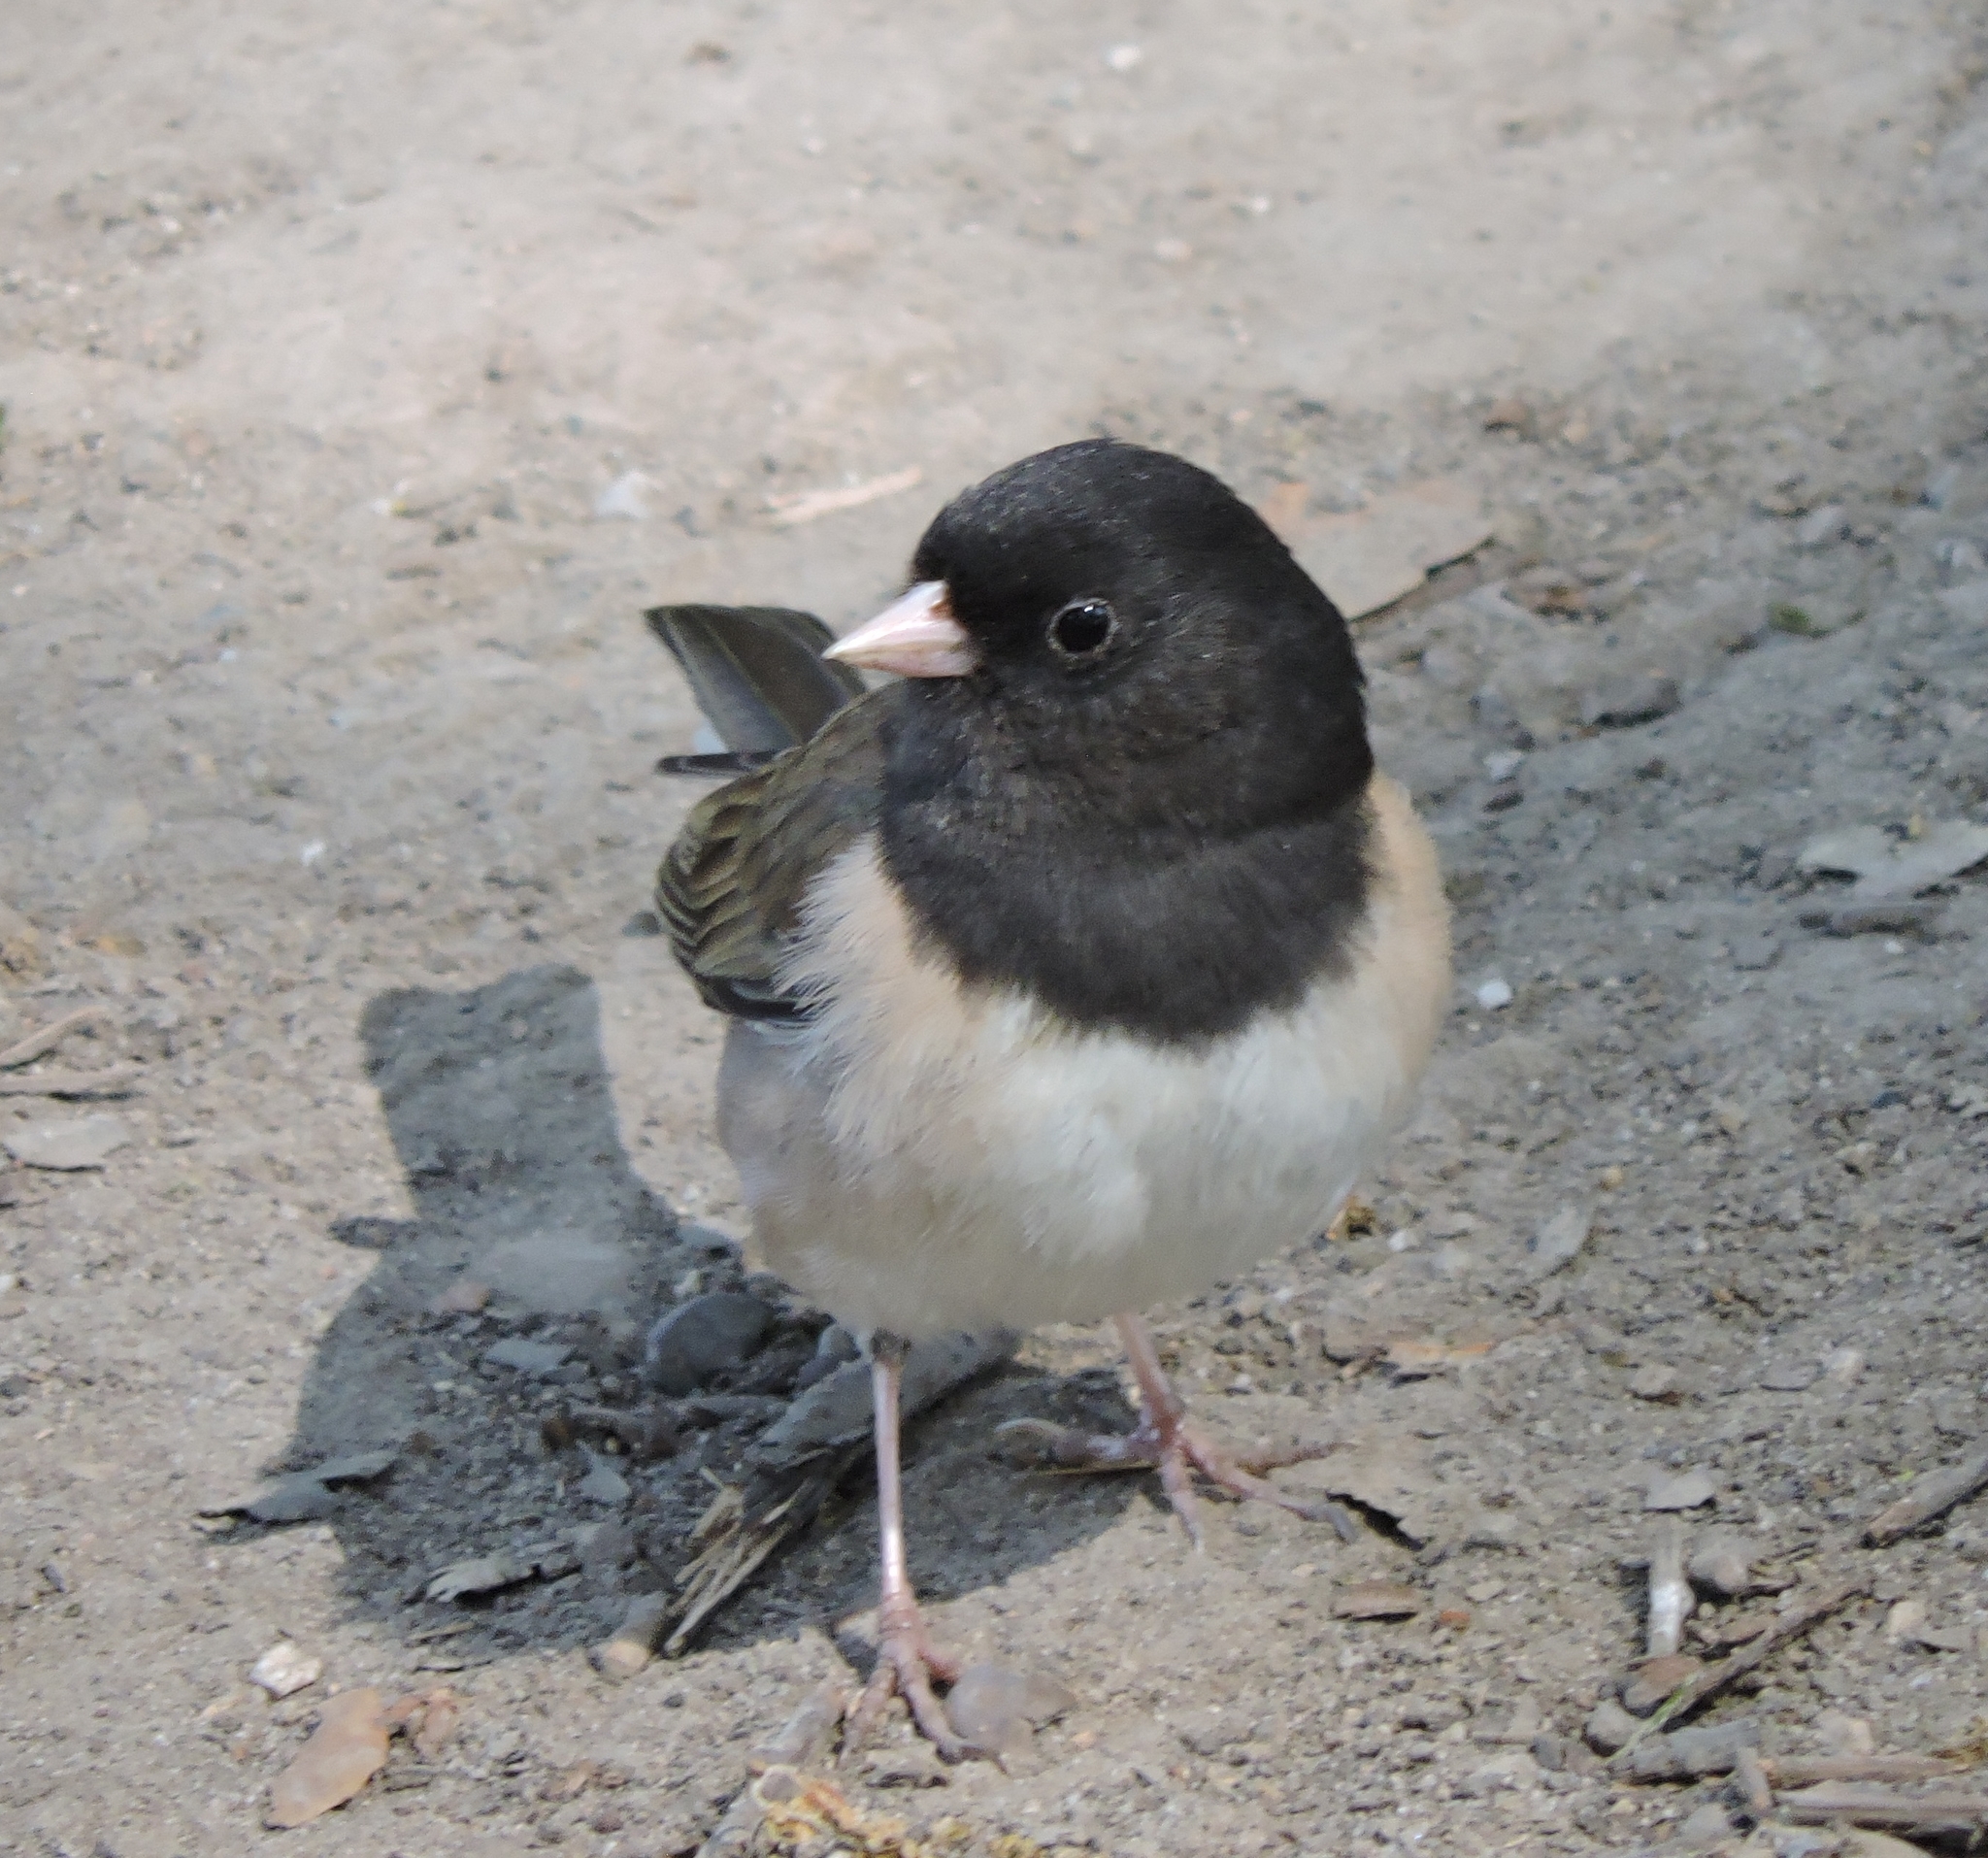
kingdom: Animalia
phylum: Chordata
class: Aves
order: Passeriformes
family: Passerellidae
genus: Junco
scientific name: Junco hyemalis
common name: Dark-eyed junco
